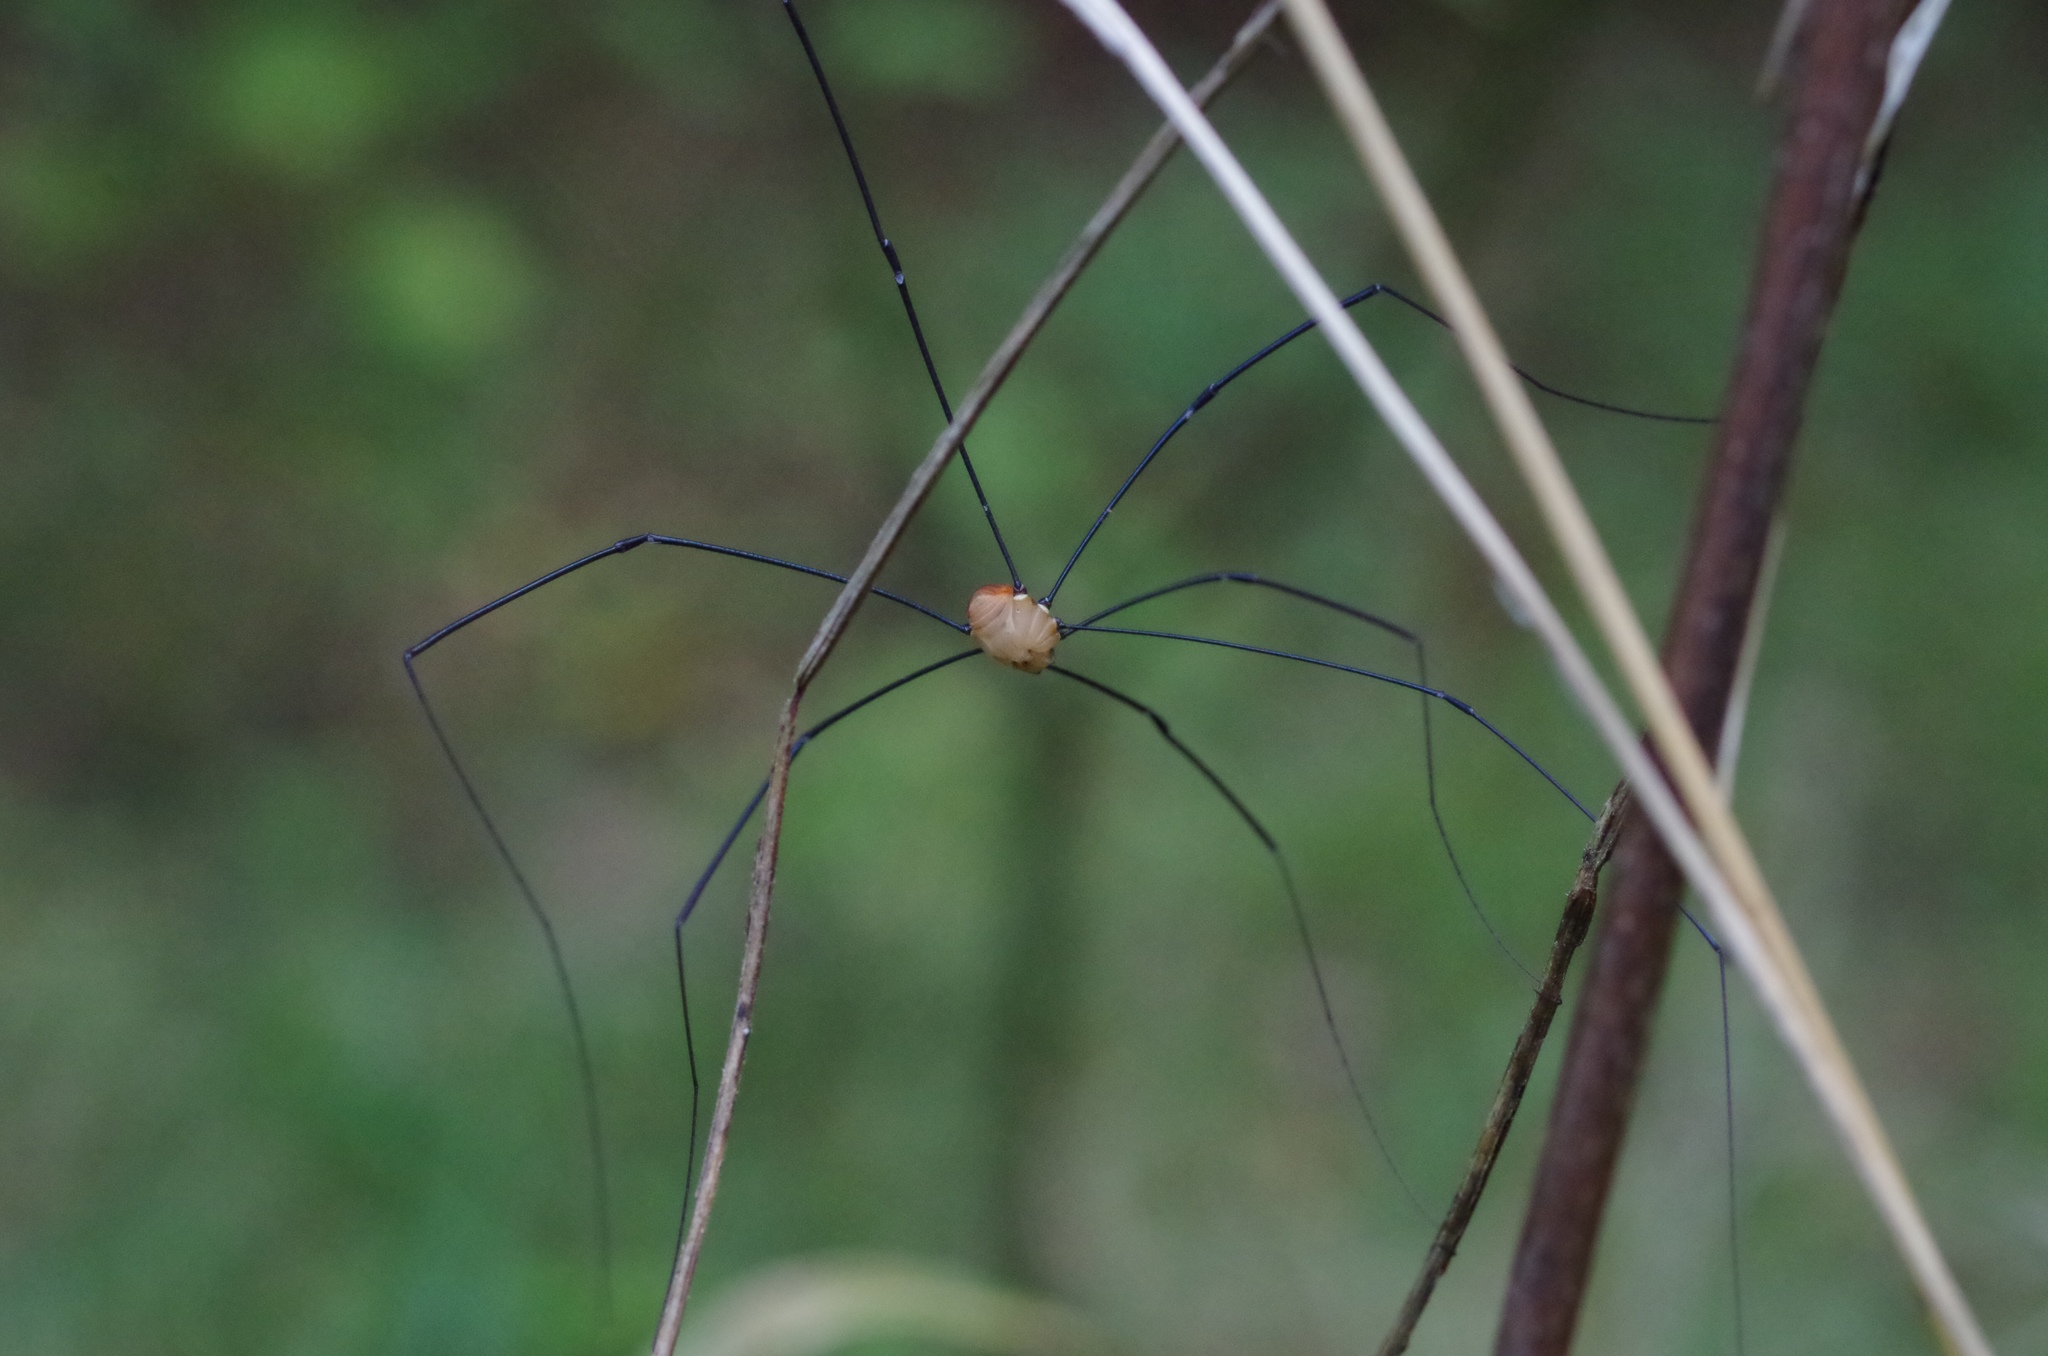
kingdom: Animalia
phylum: Arthropoda
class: Arachnida
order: Opiliones
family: Sclerosomatidae
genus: Leiobunum
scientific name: Leiobunum rotundum
